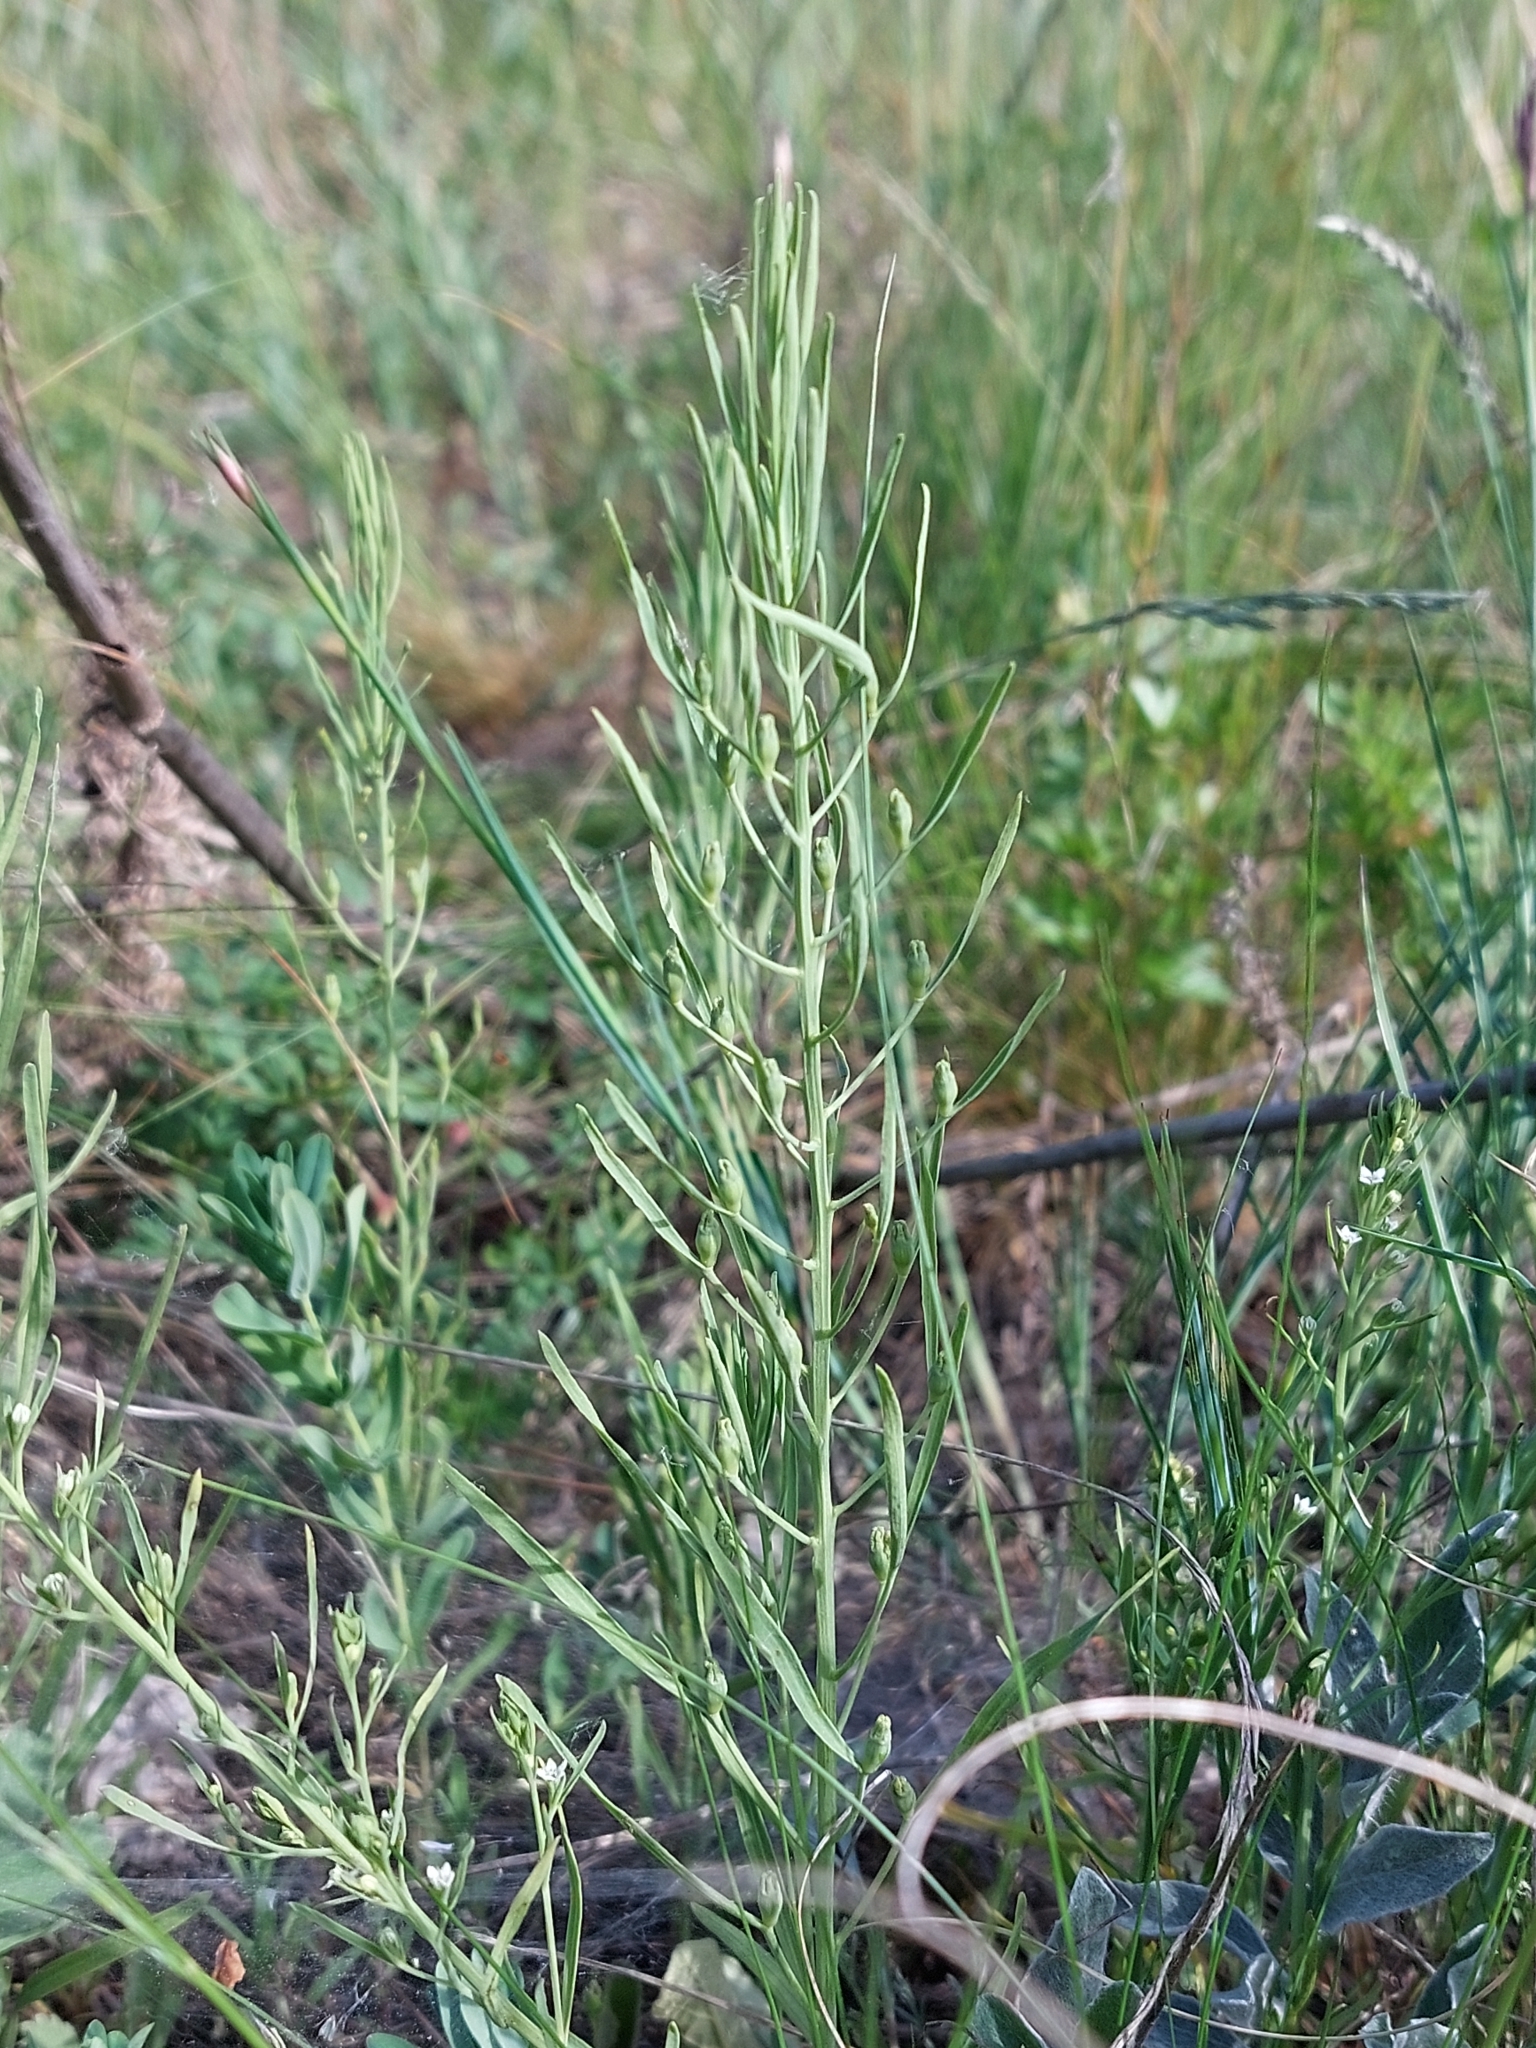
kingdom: Plantae
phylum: Tracheophyta
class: Magnoliopsida
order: Santalales
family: Thesiaceae
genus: Thesium
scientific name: Thesium ebracteatum
